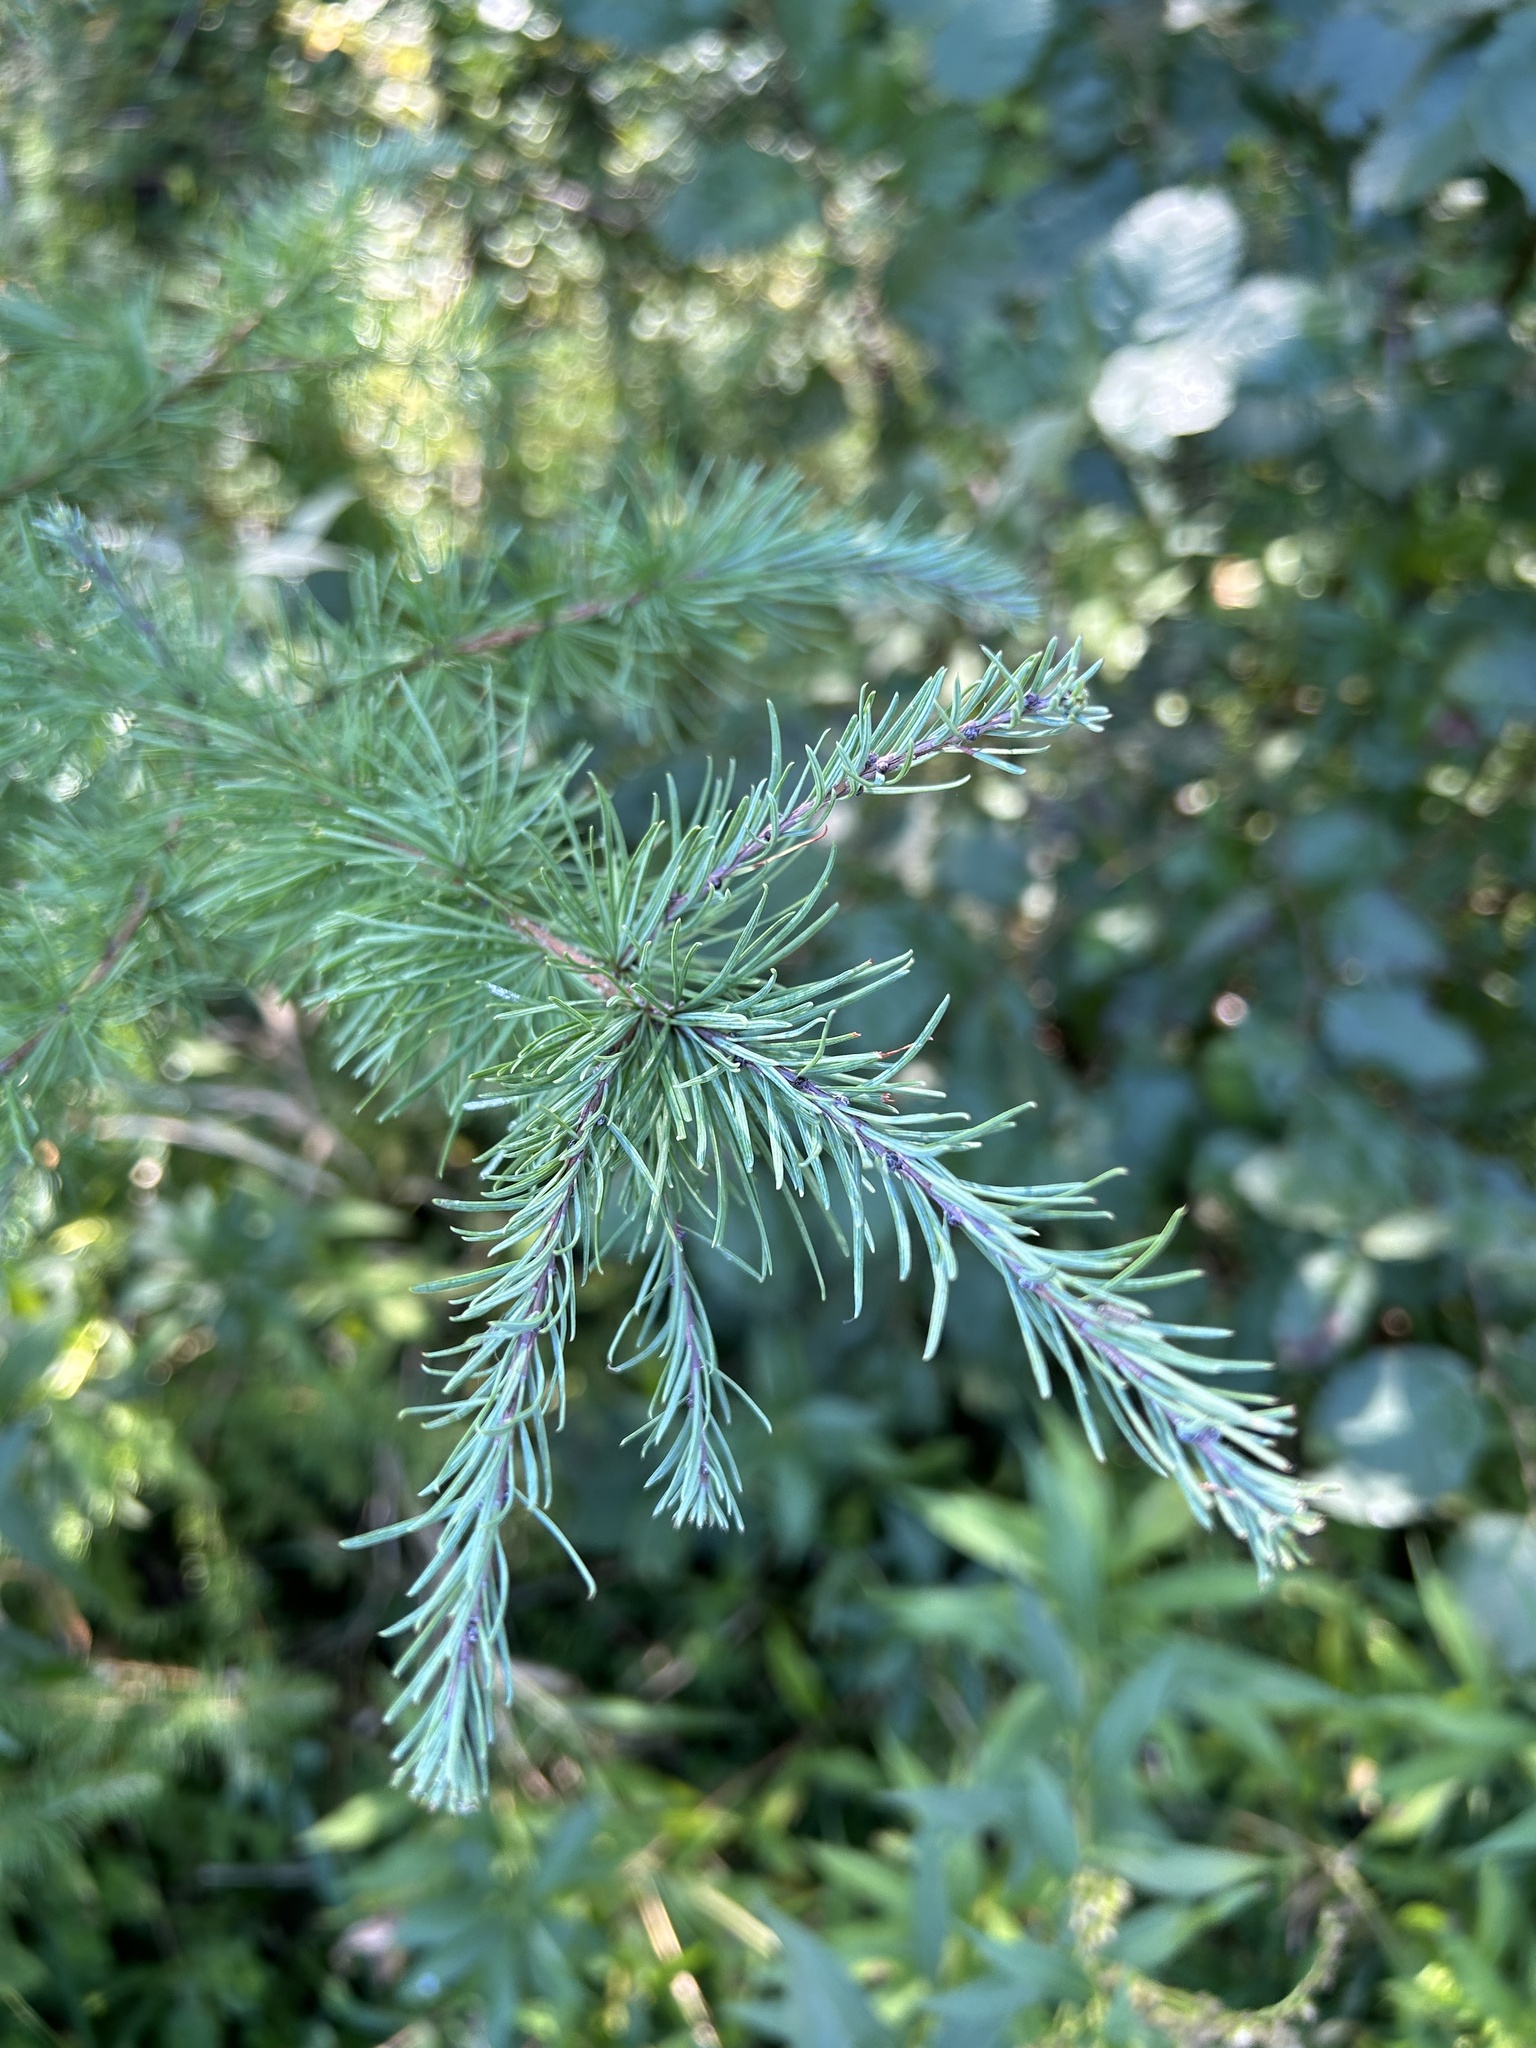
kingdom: Plantae
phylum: Tracheophyta
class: Pinopsida
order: Pinales
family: Pinaceae
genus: Larix
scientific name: Larix laricina
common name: American larch
